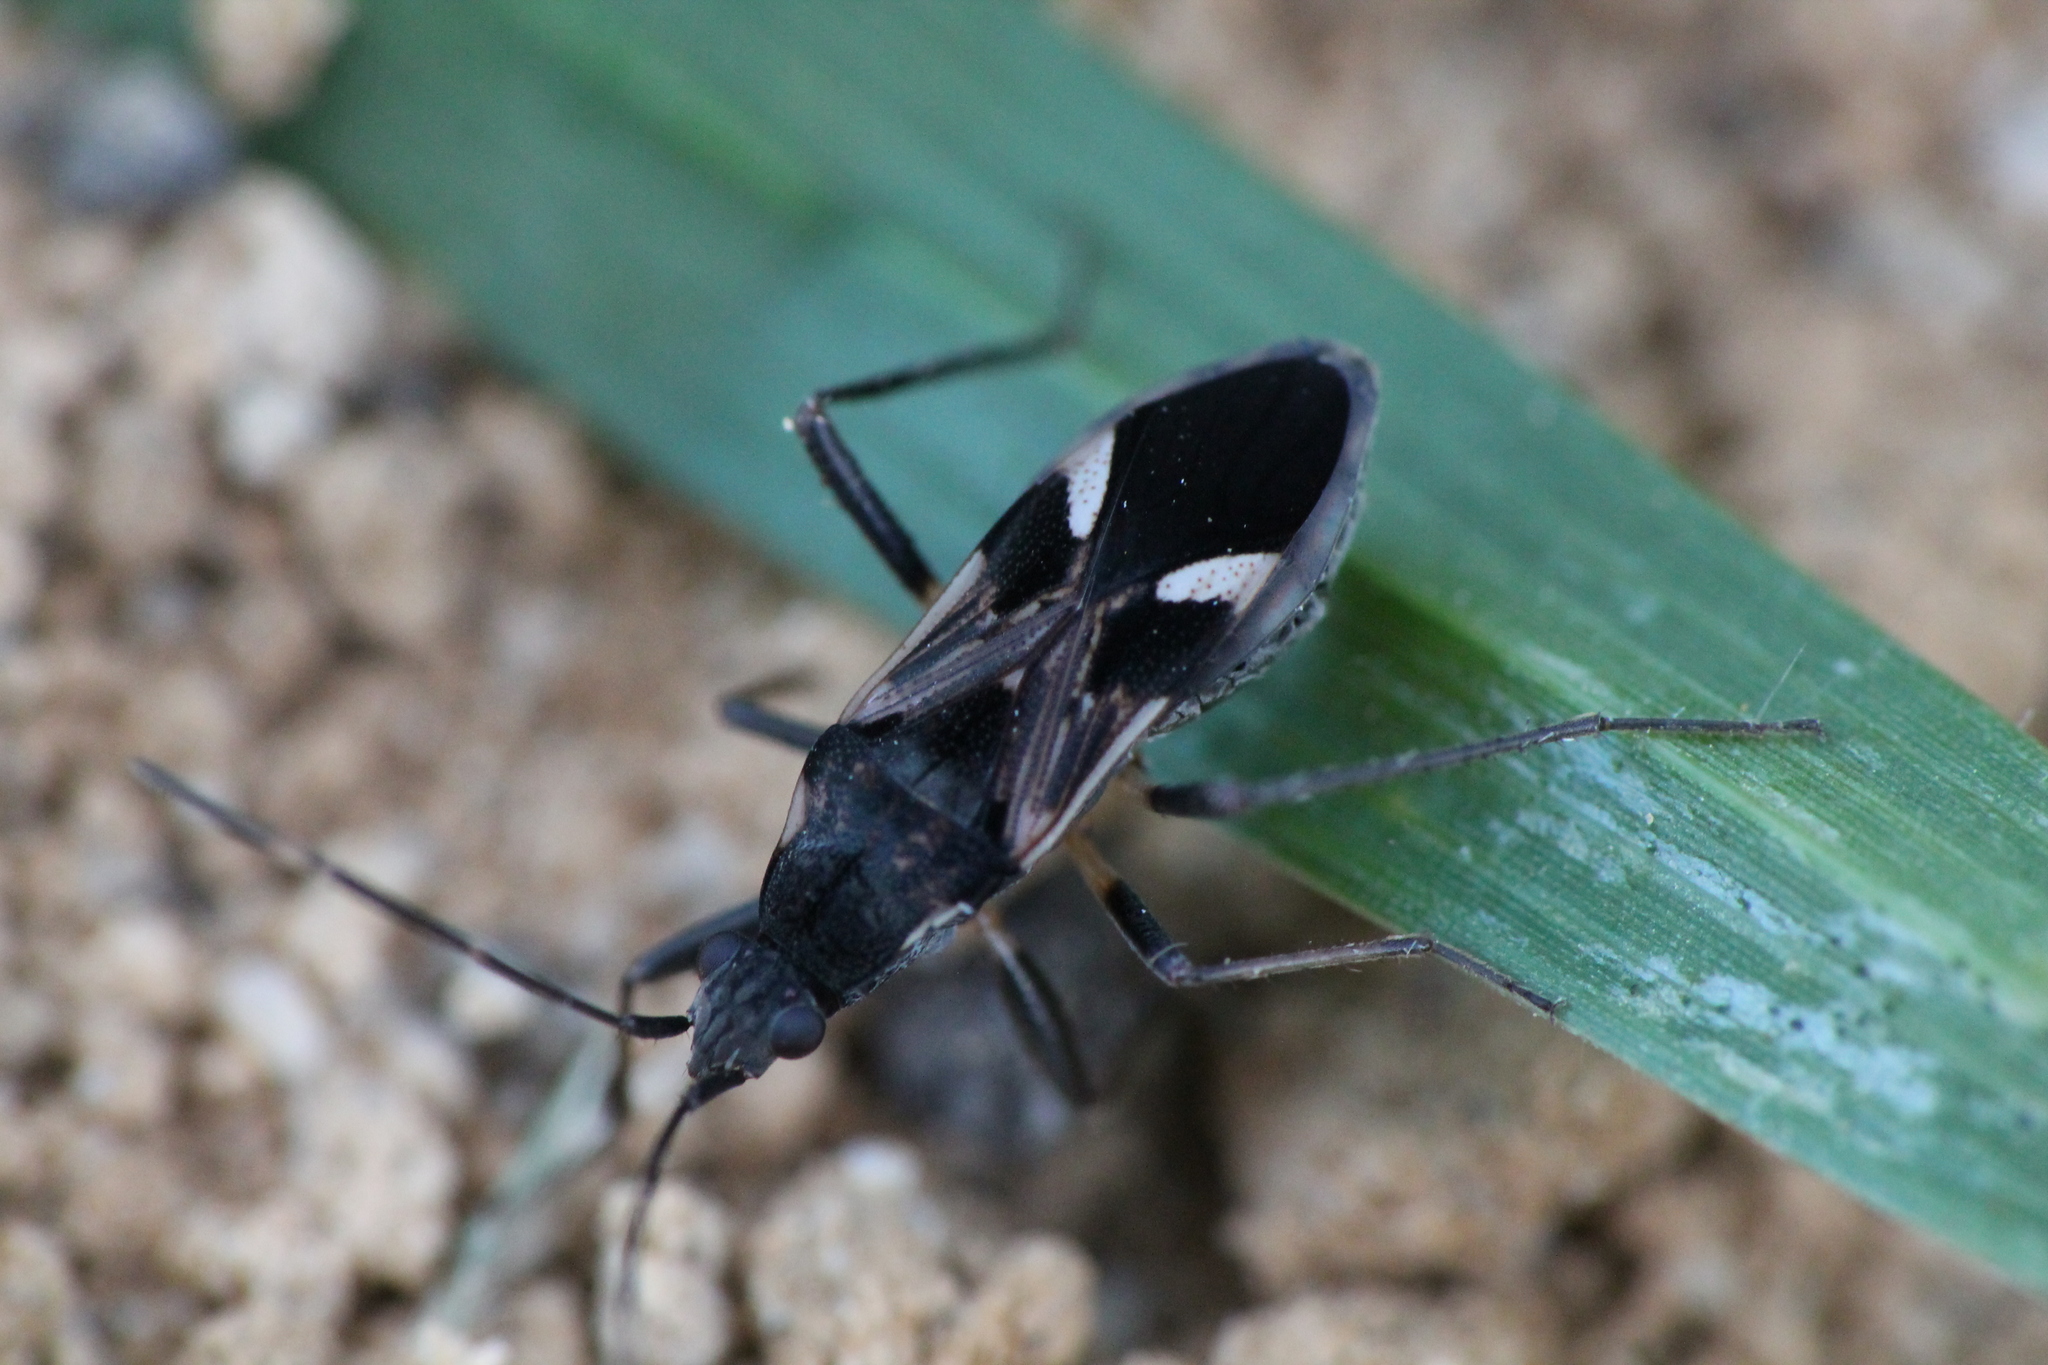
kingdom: Animalia
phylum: Arthropoda
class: Insecta
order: Hemiptera
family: Rhyparochromidae
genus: Dieuches
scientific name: Dieuches notatus
